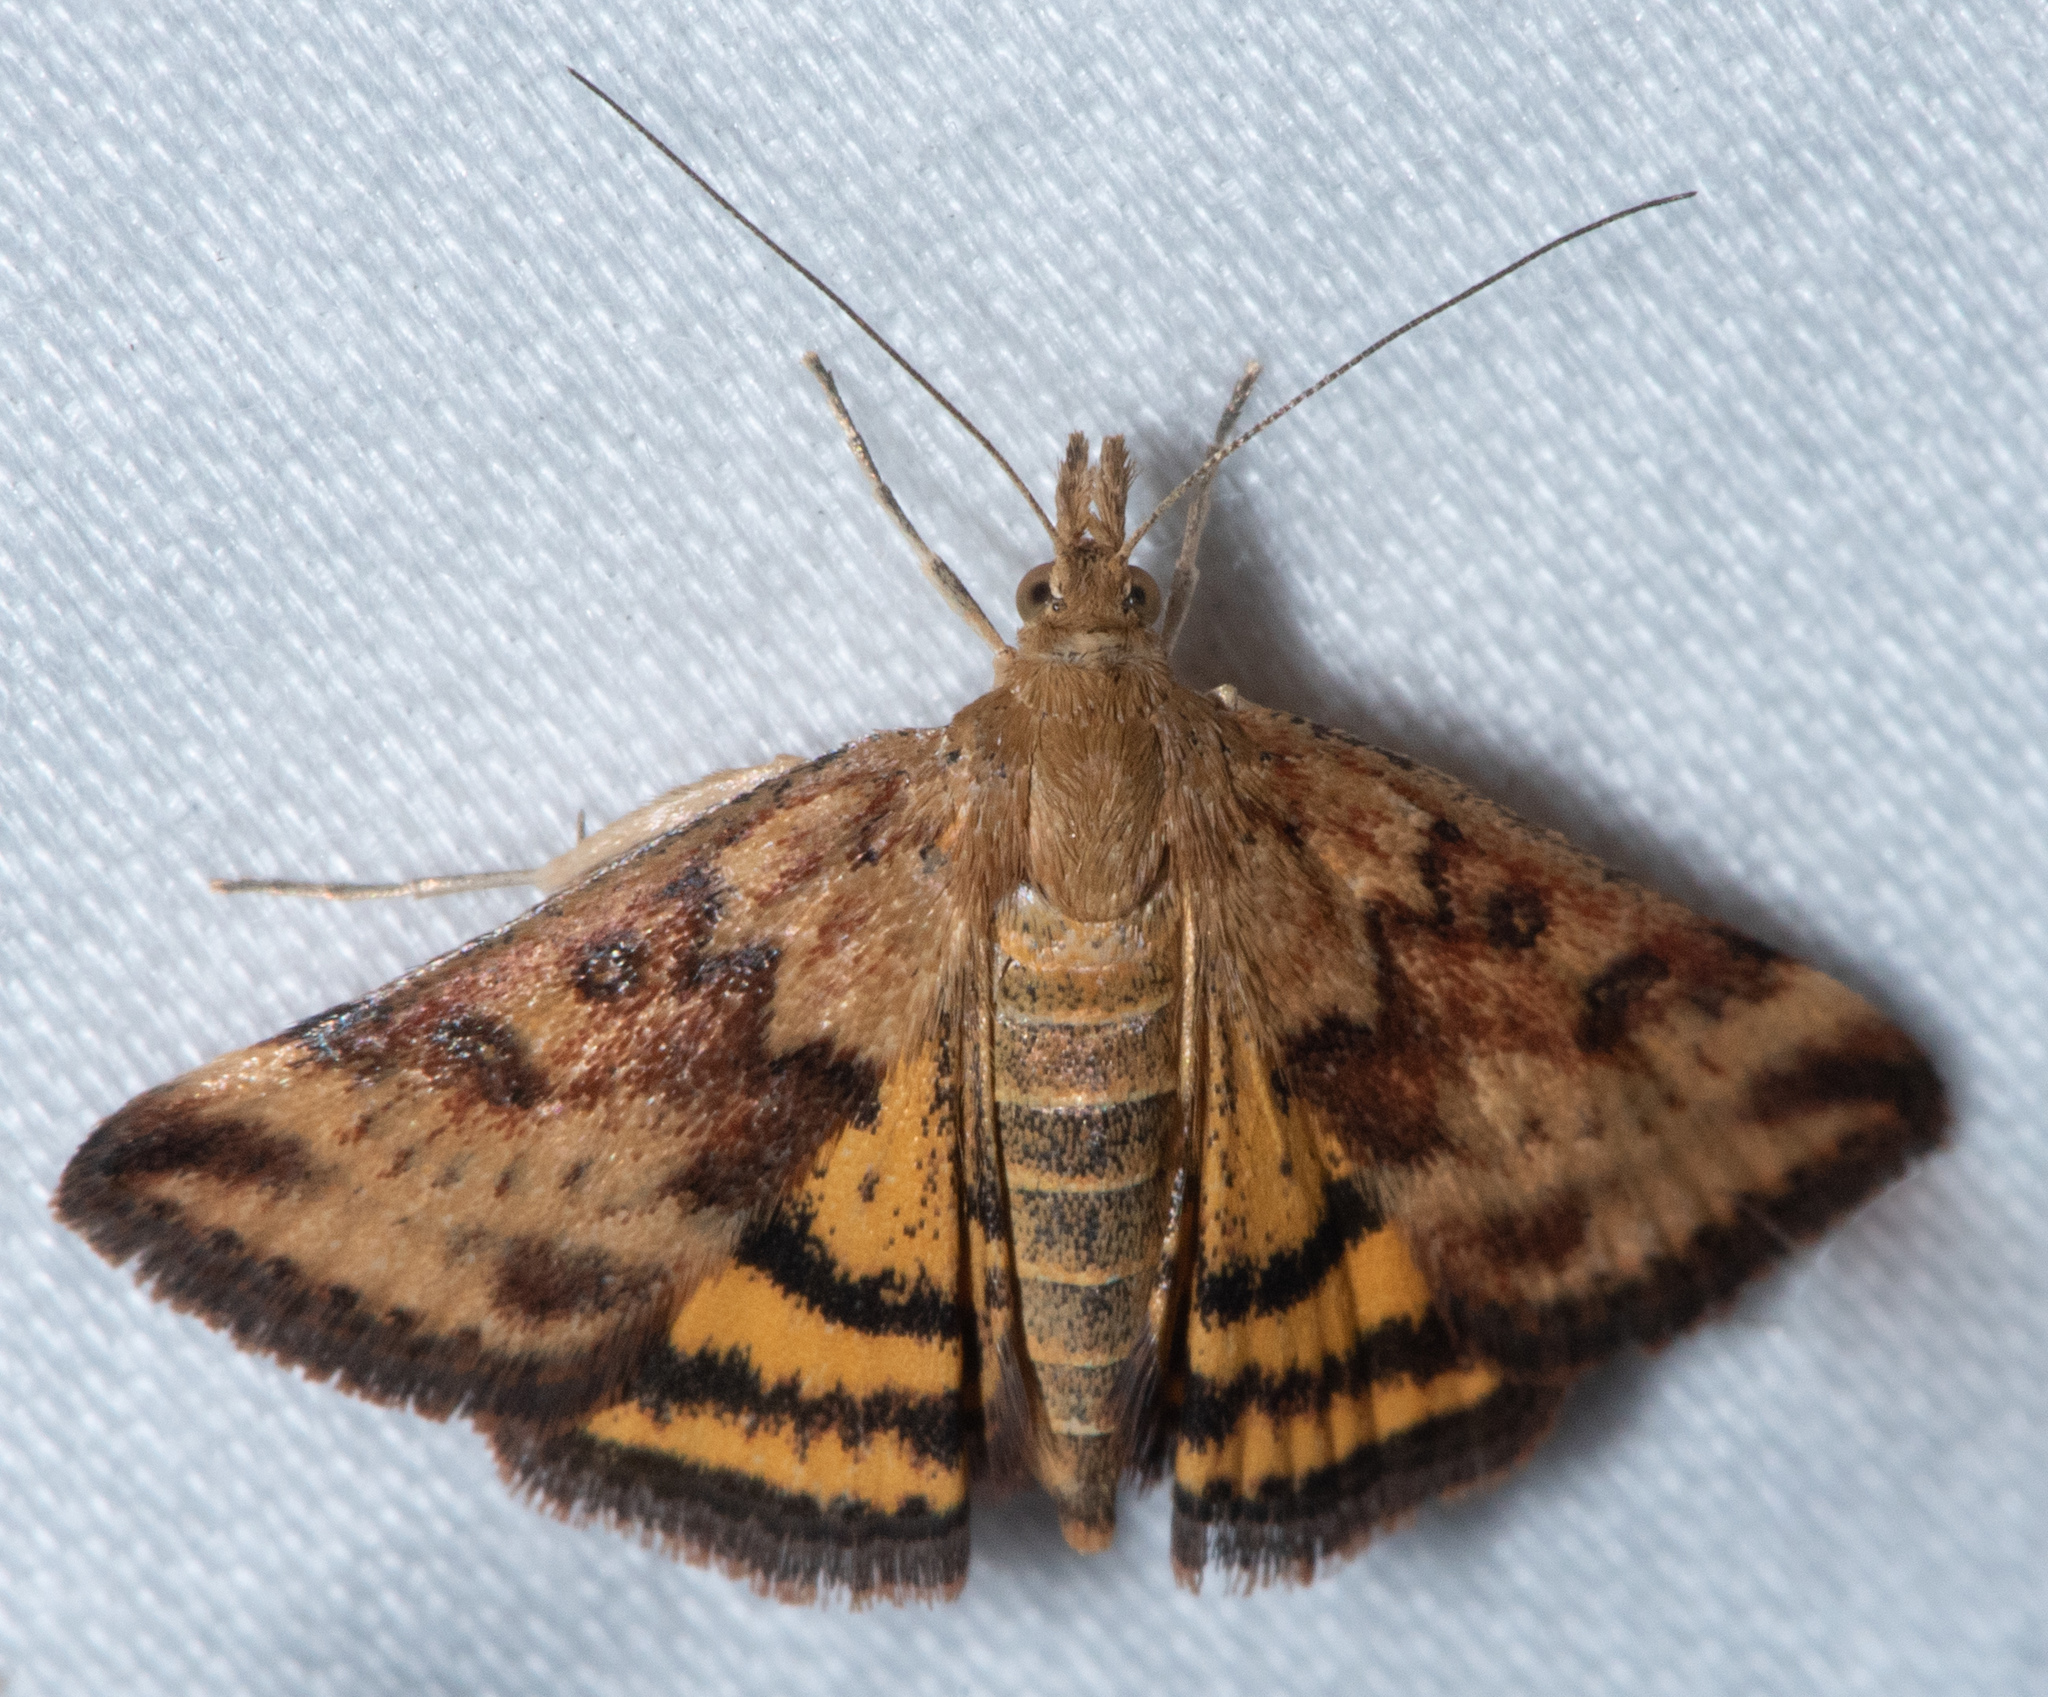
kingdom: Animalia
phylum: Arthropoda
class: Insecta
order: Lepidoptera
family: Crambidae
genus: Pyrausta
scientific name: Pyrausta subsequalis
